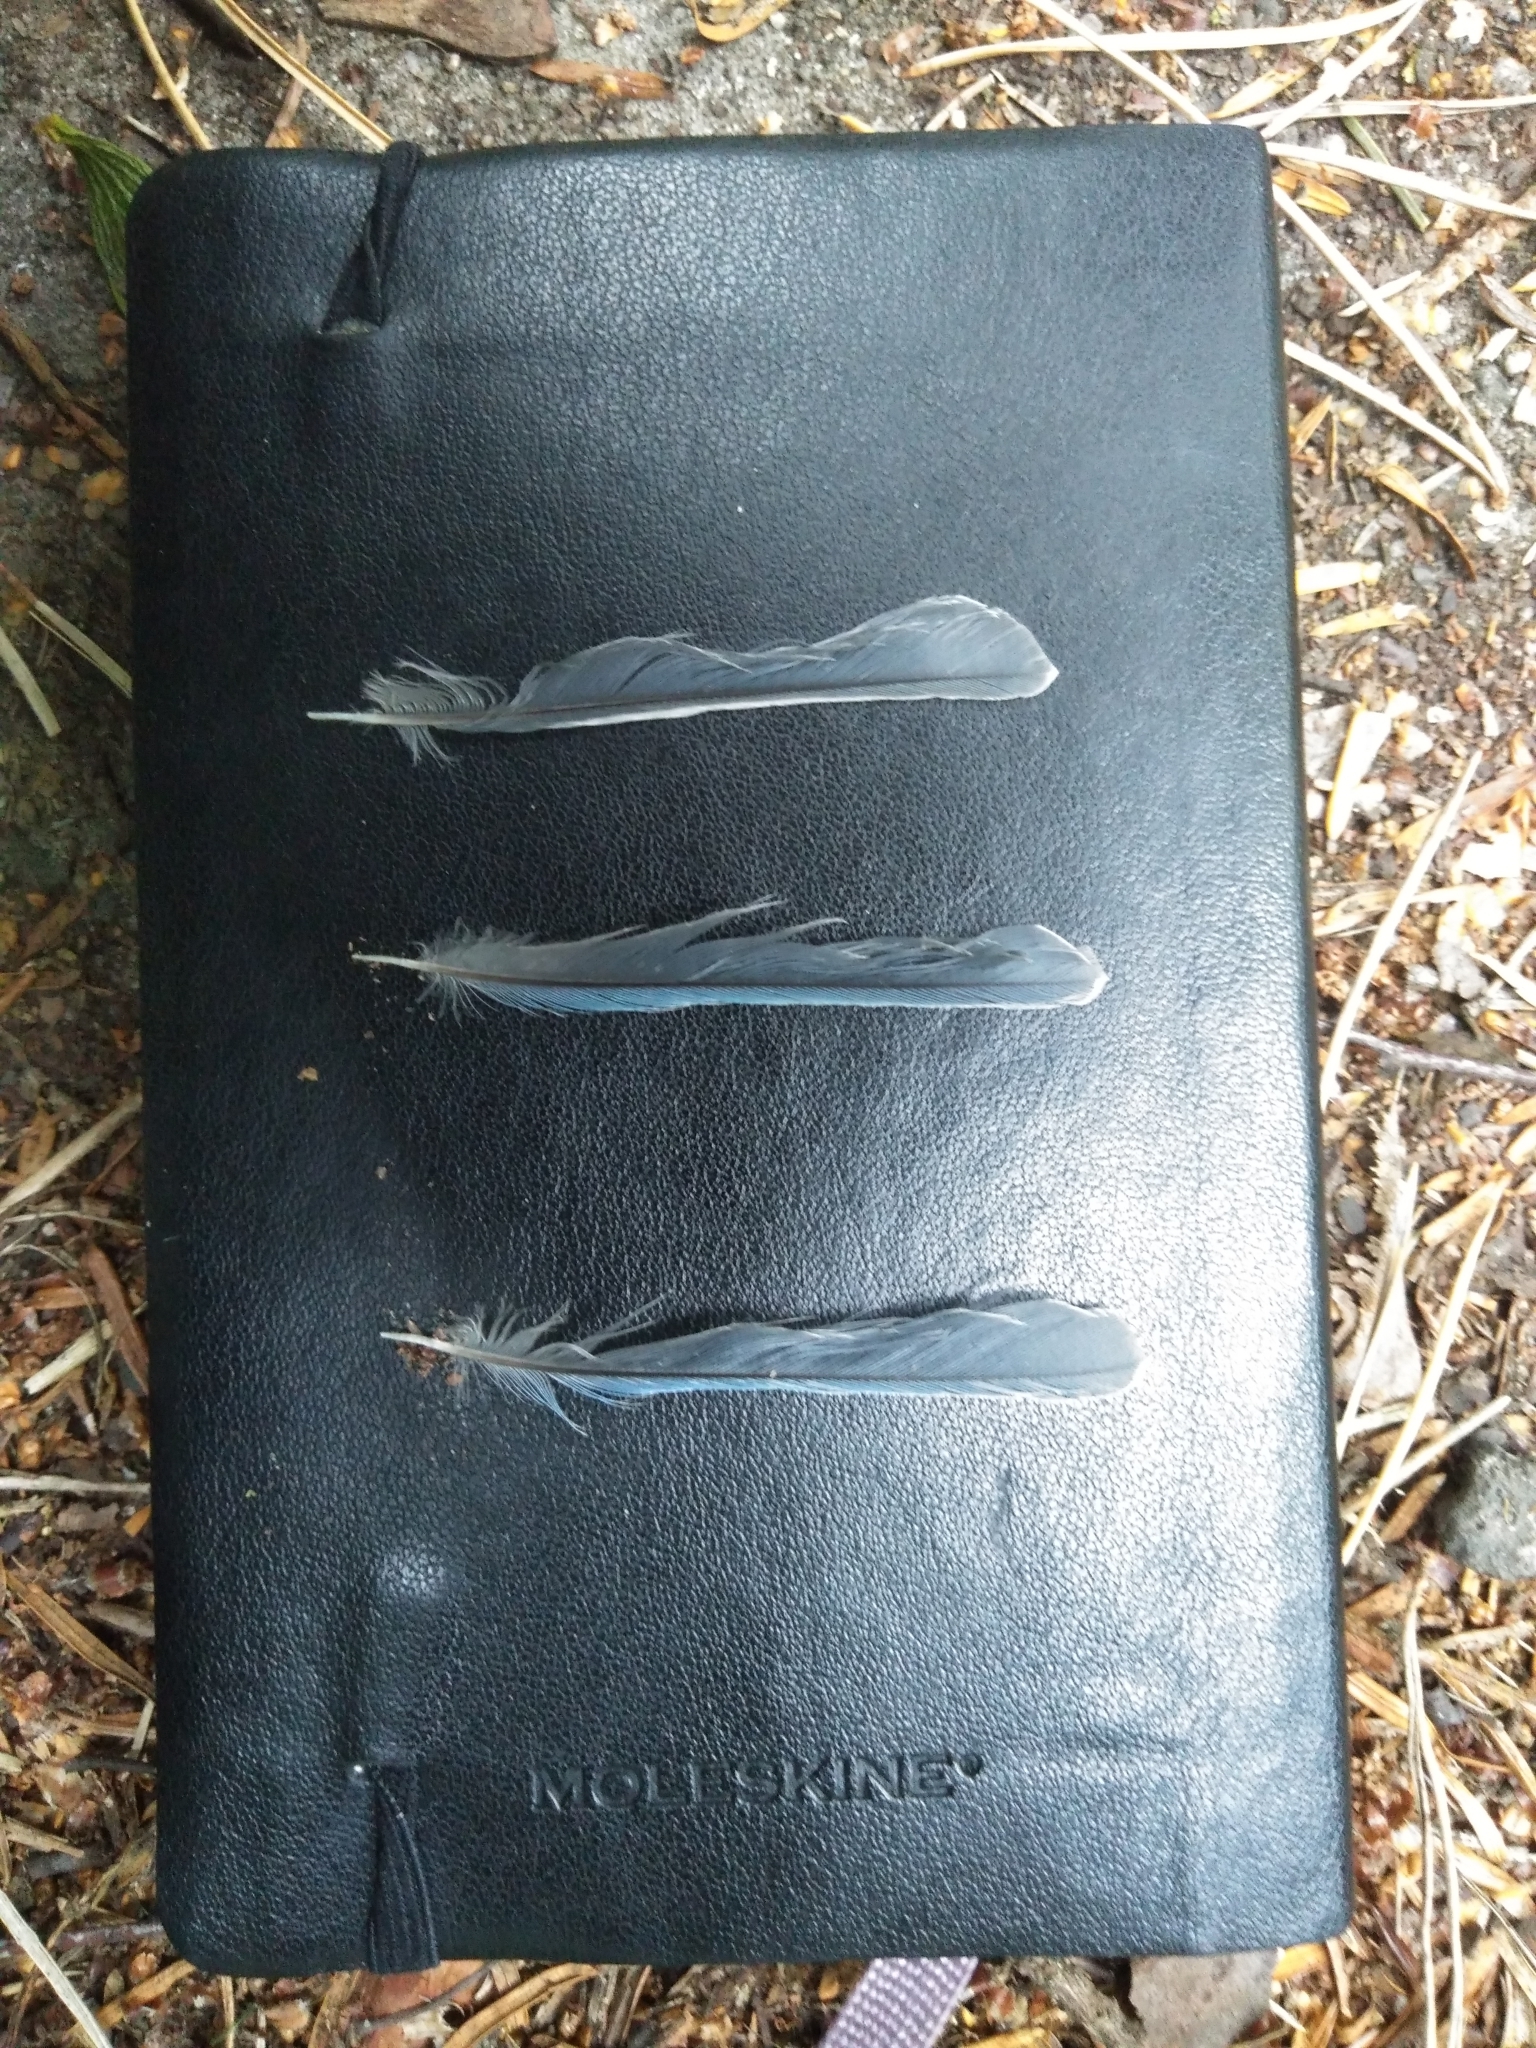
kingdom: Animalia
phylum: Chordata
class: Aves
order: Passeriformes
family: Paridae
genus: Cyanistes
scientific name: Cyanistes caeruleus
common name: Eurasian blue tit
